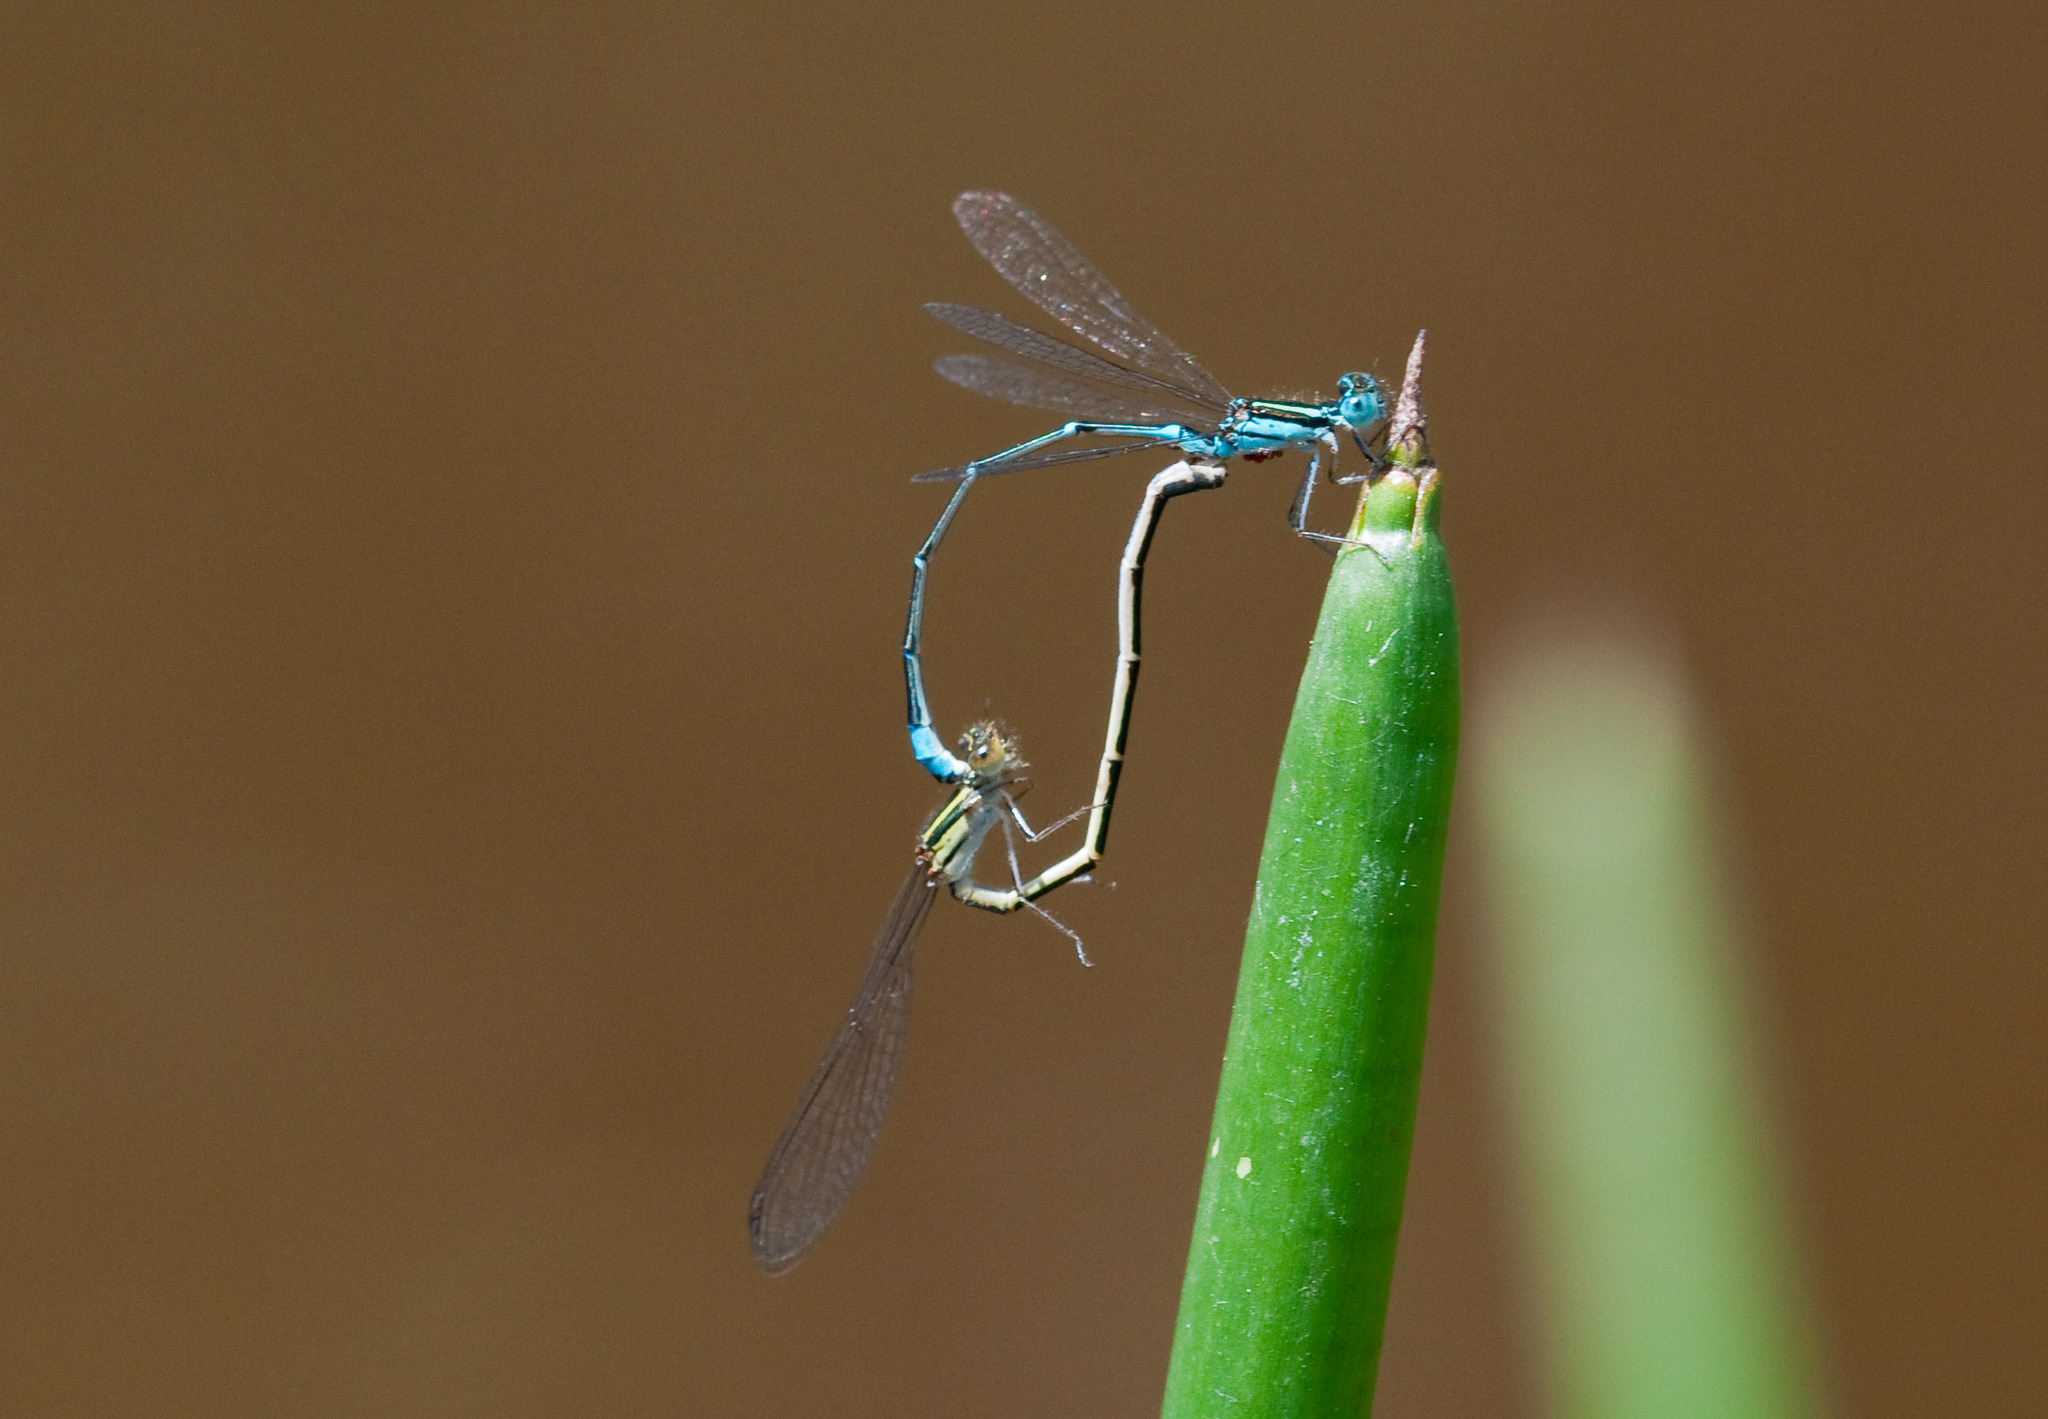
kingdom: Animalia
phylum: Arthropoda
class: Insecta
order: Odonata
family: Coenagrionidae
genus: Austroagrion
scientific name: Austroagrion watsoni
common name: Eastern billabongfly
